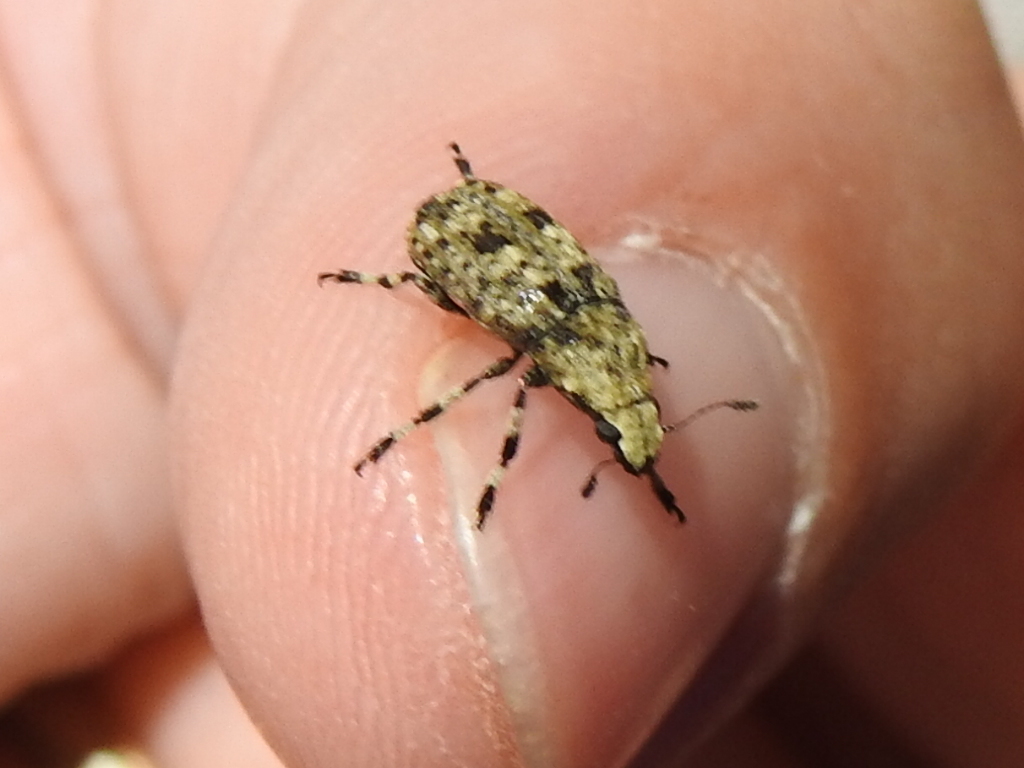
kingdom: Animalia
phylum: Arthropoda
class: Insecta
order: Coleoptera
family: Anthribidae
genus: Euparius
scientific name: Euparius marmoreus
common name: Marbled fungus weevil
